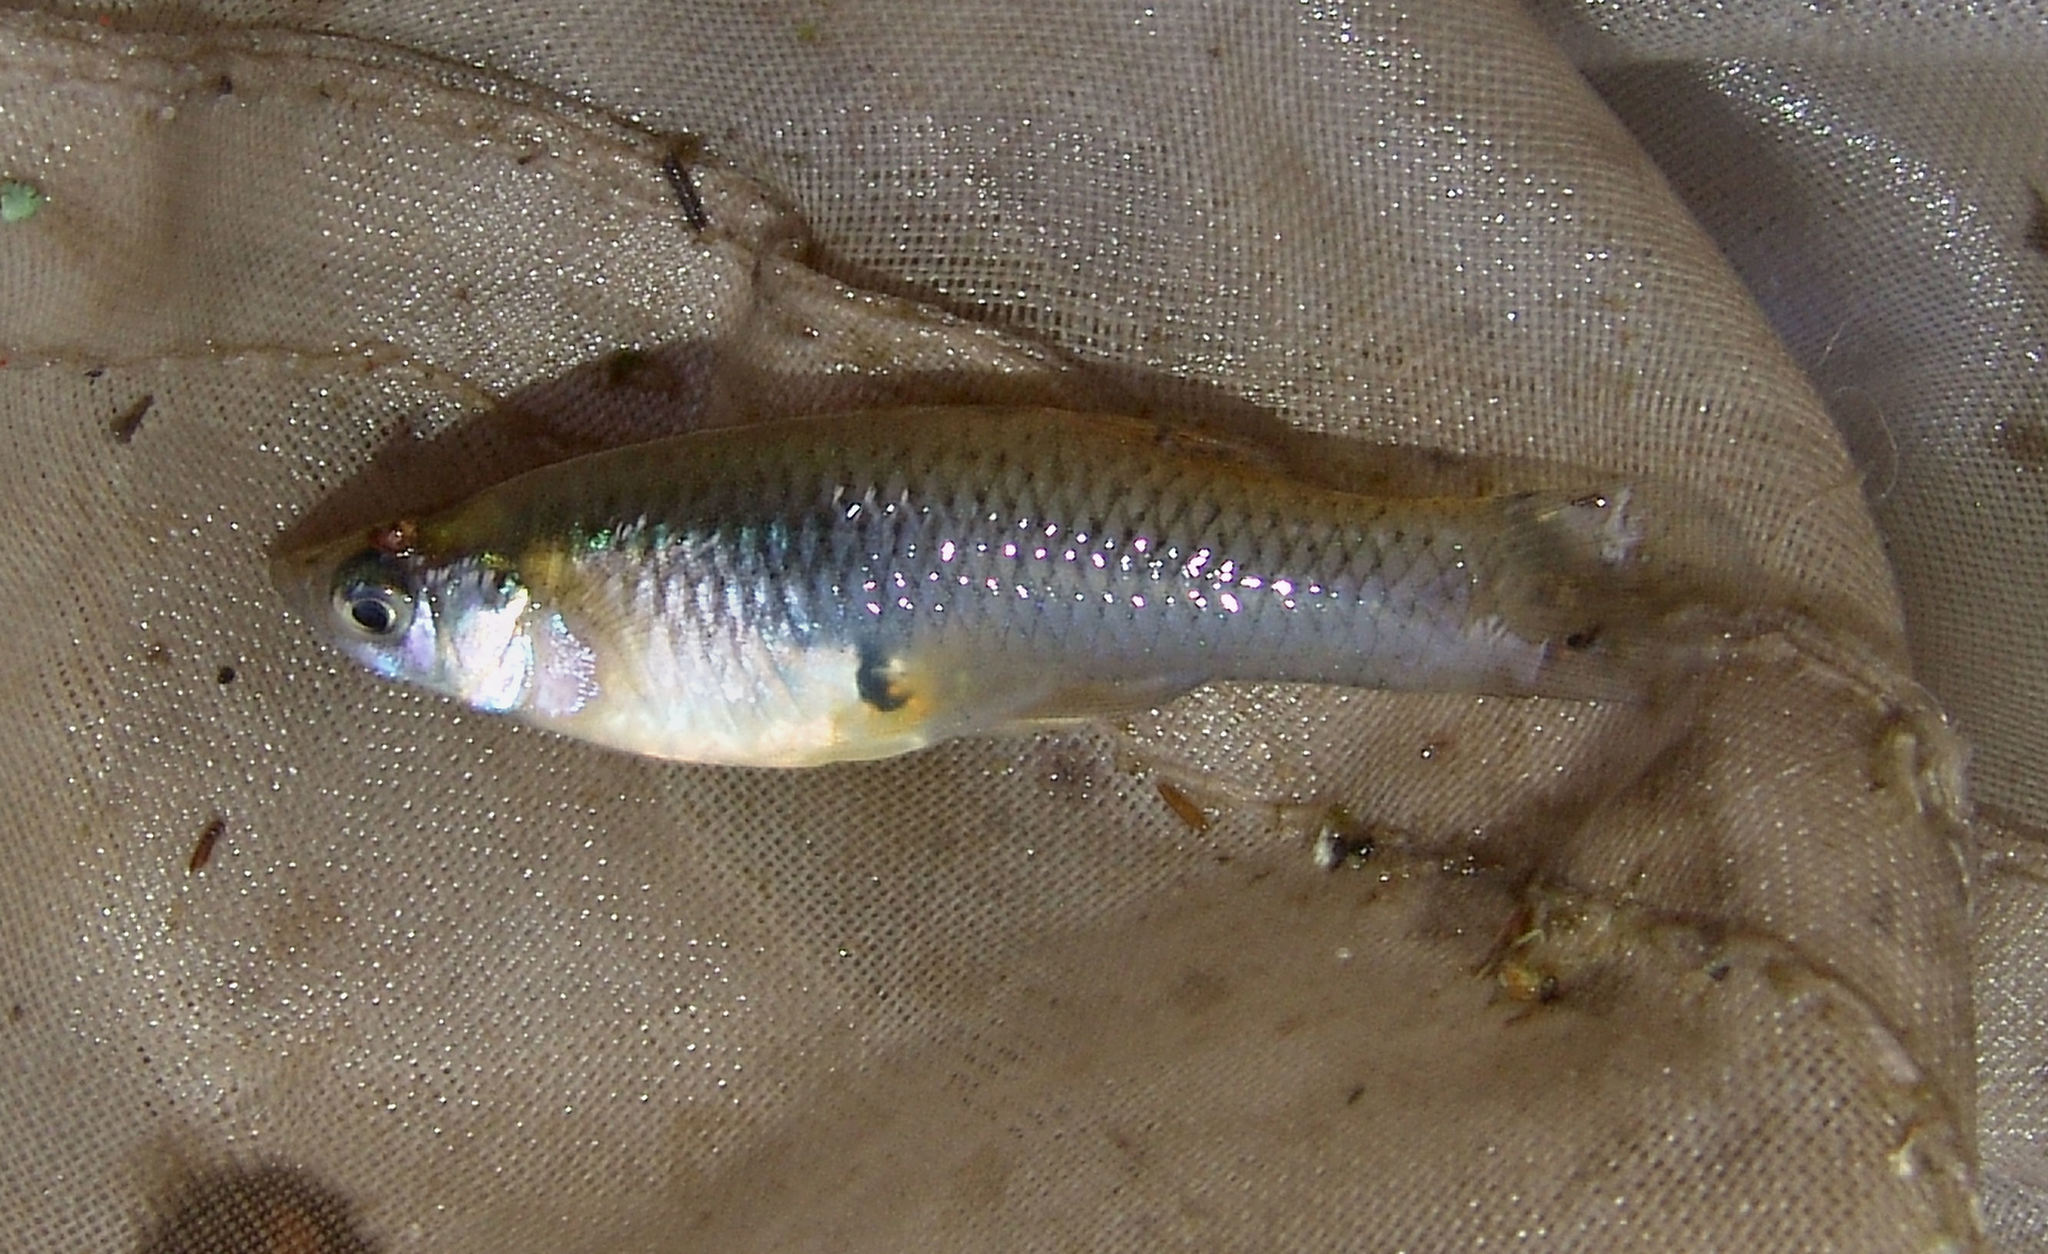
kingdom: Animalia
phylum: Chordata
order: Cyprinodontiformes
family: Poeciliidae
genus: Gambusia
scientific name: Gambusia affinis
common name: Mosquitofish
